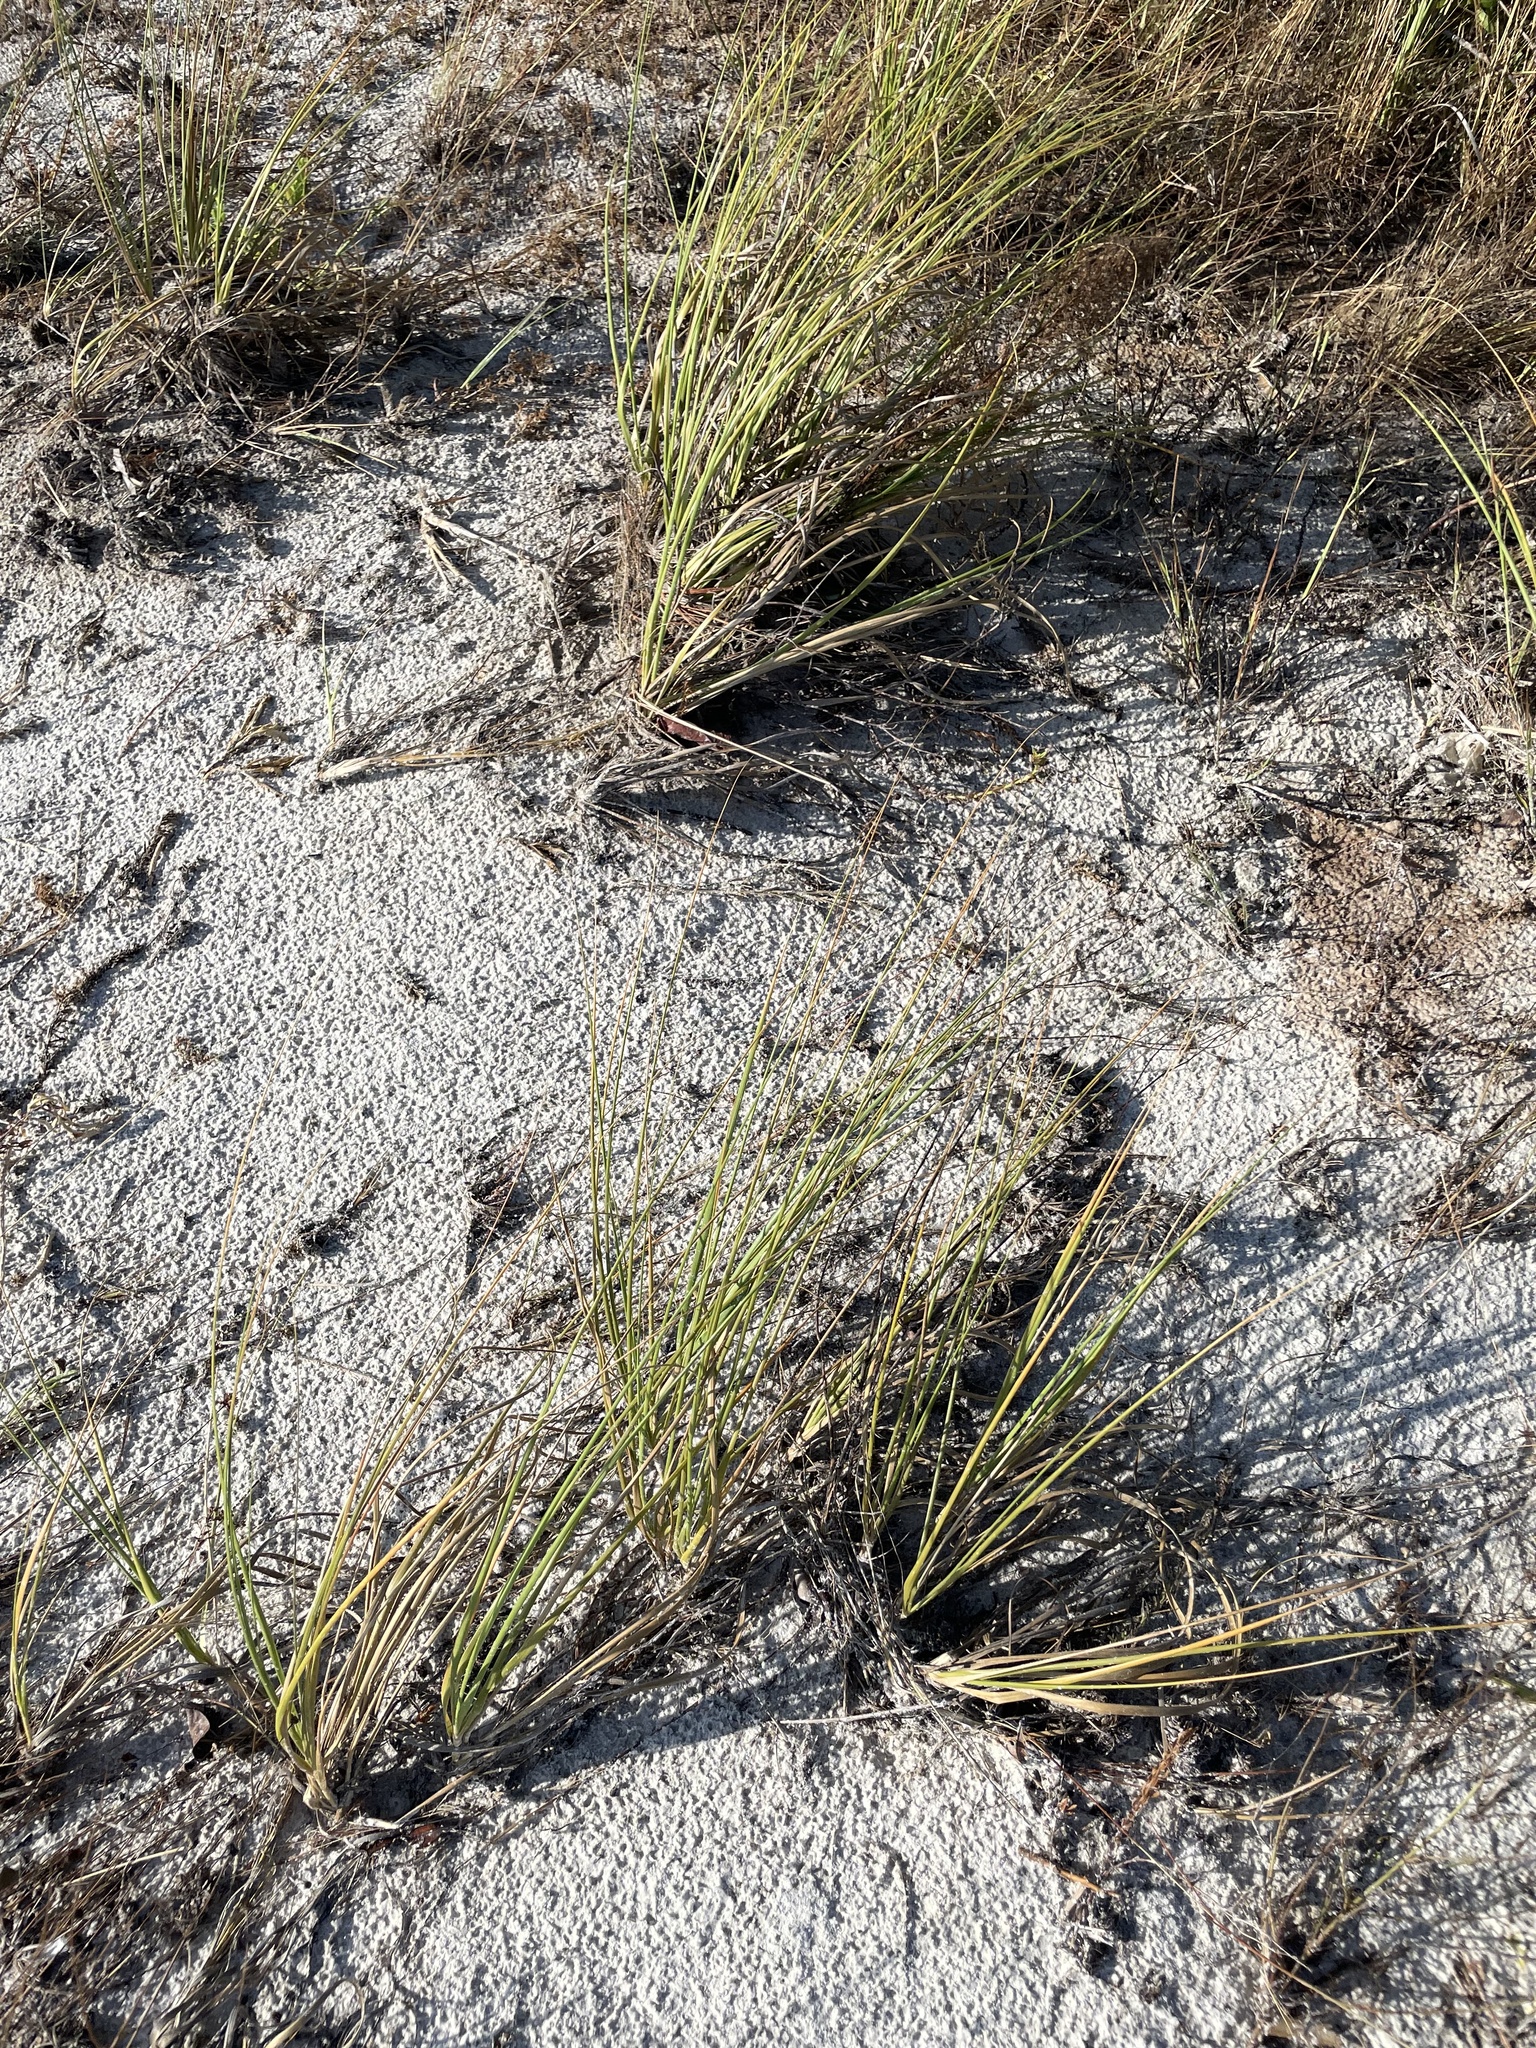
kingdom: Plantae
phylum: Tracheophyta
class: Liliopsida
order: Poales
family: Poaceae
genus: Uniola
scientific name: Uniola paniculata
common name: Seaside-oats
